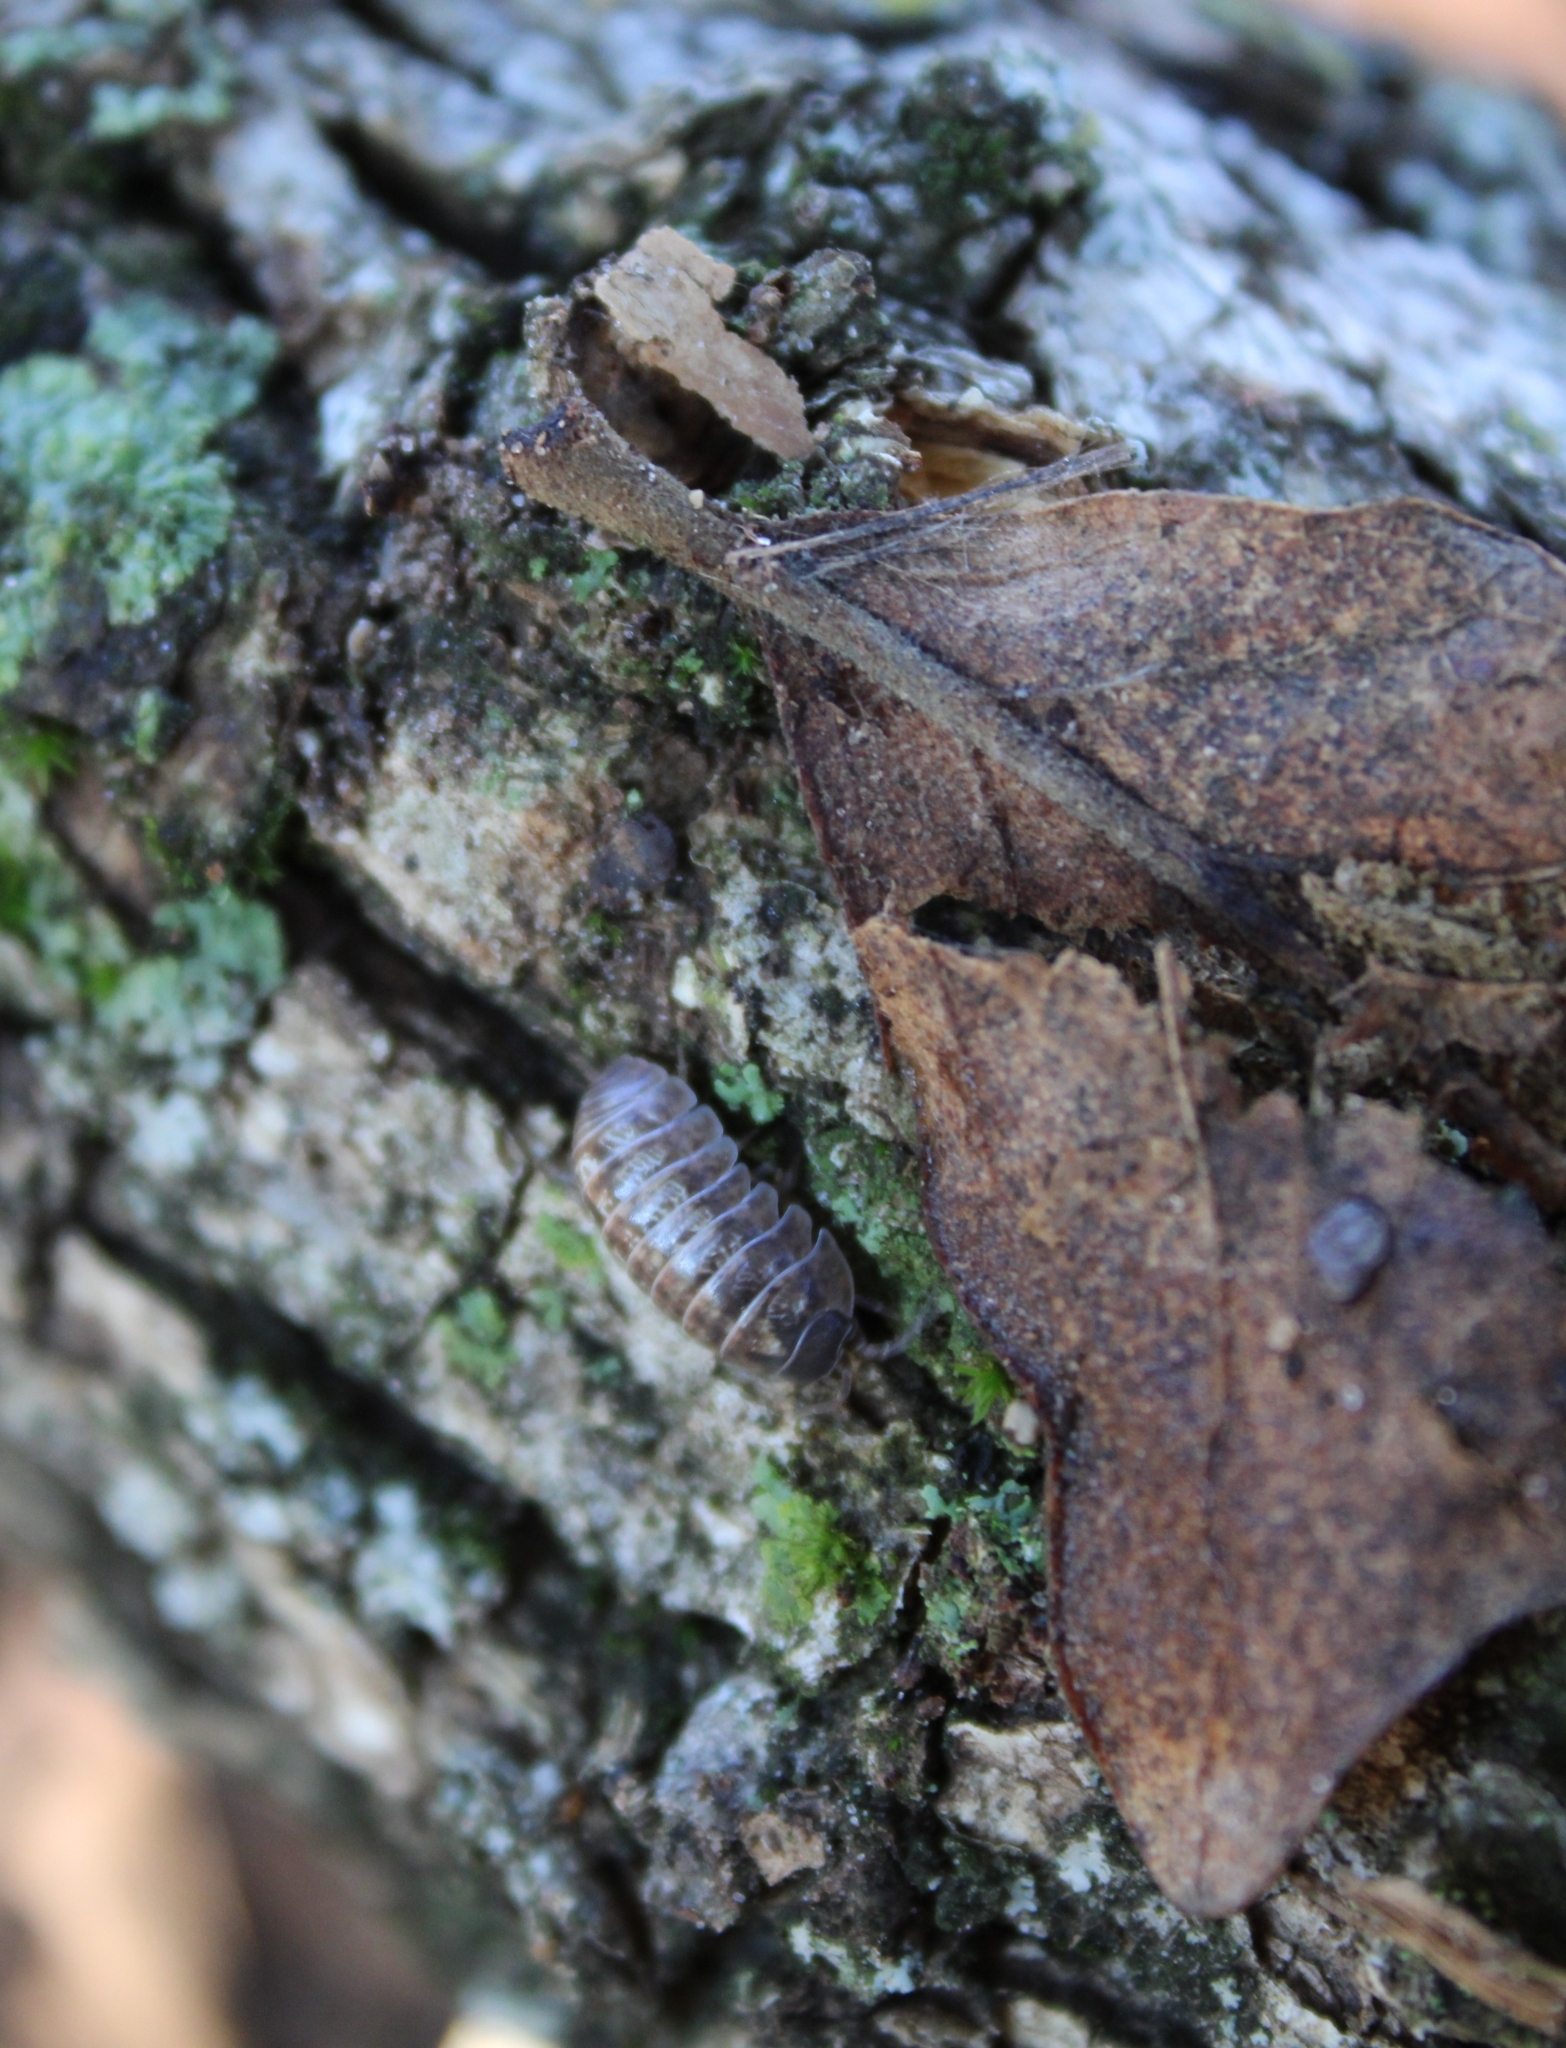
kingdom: Animalia
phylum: Arthropoda
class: Malacostraca
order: Isopoda
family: Armadillidiidae
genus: Armadillidium
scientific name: Armadillidium vulgare
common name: Common pill woodlouse
